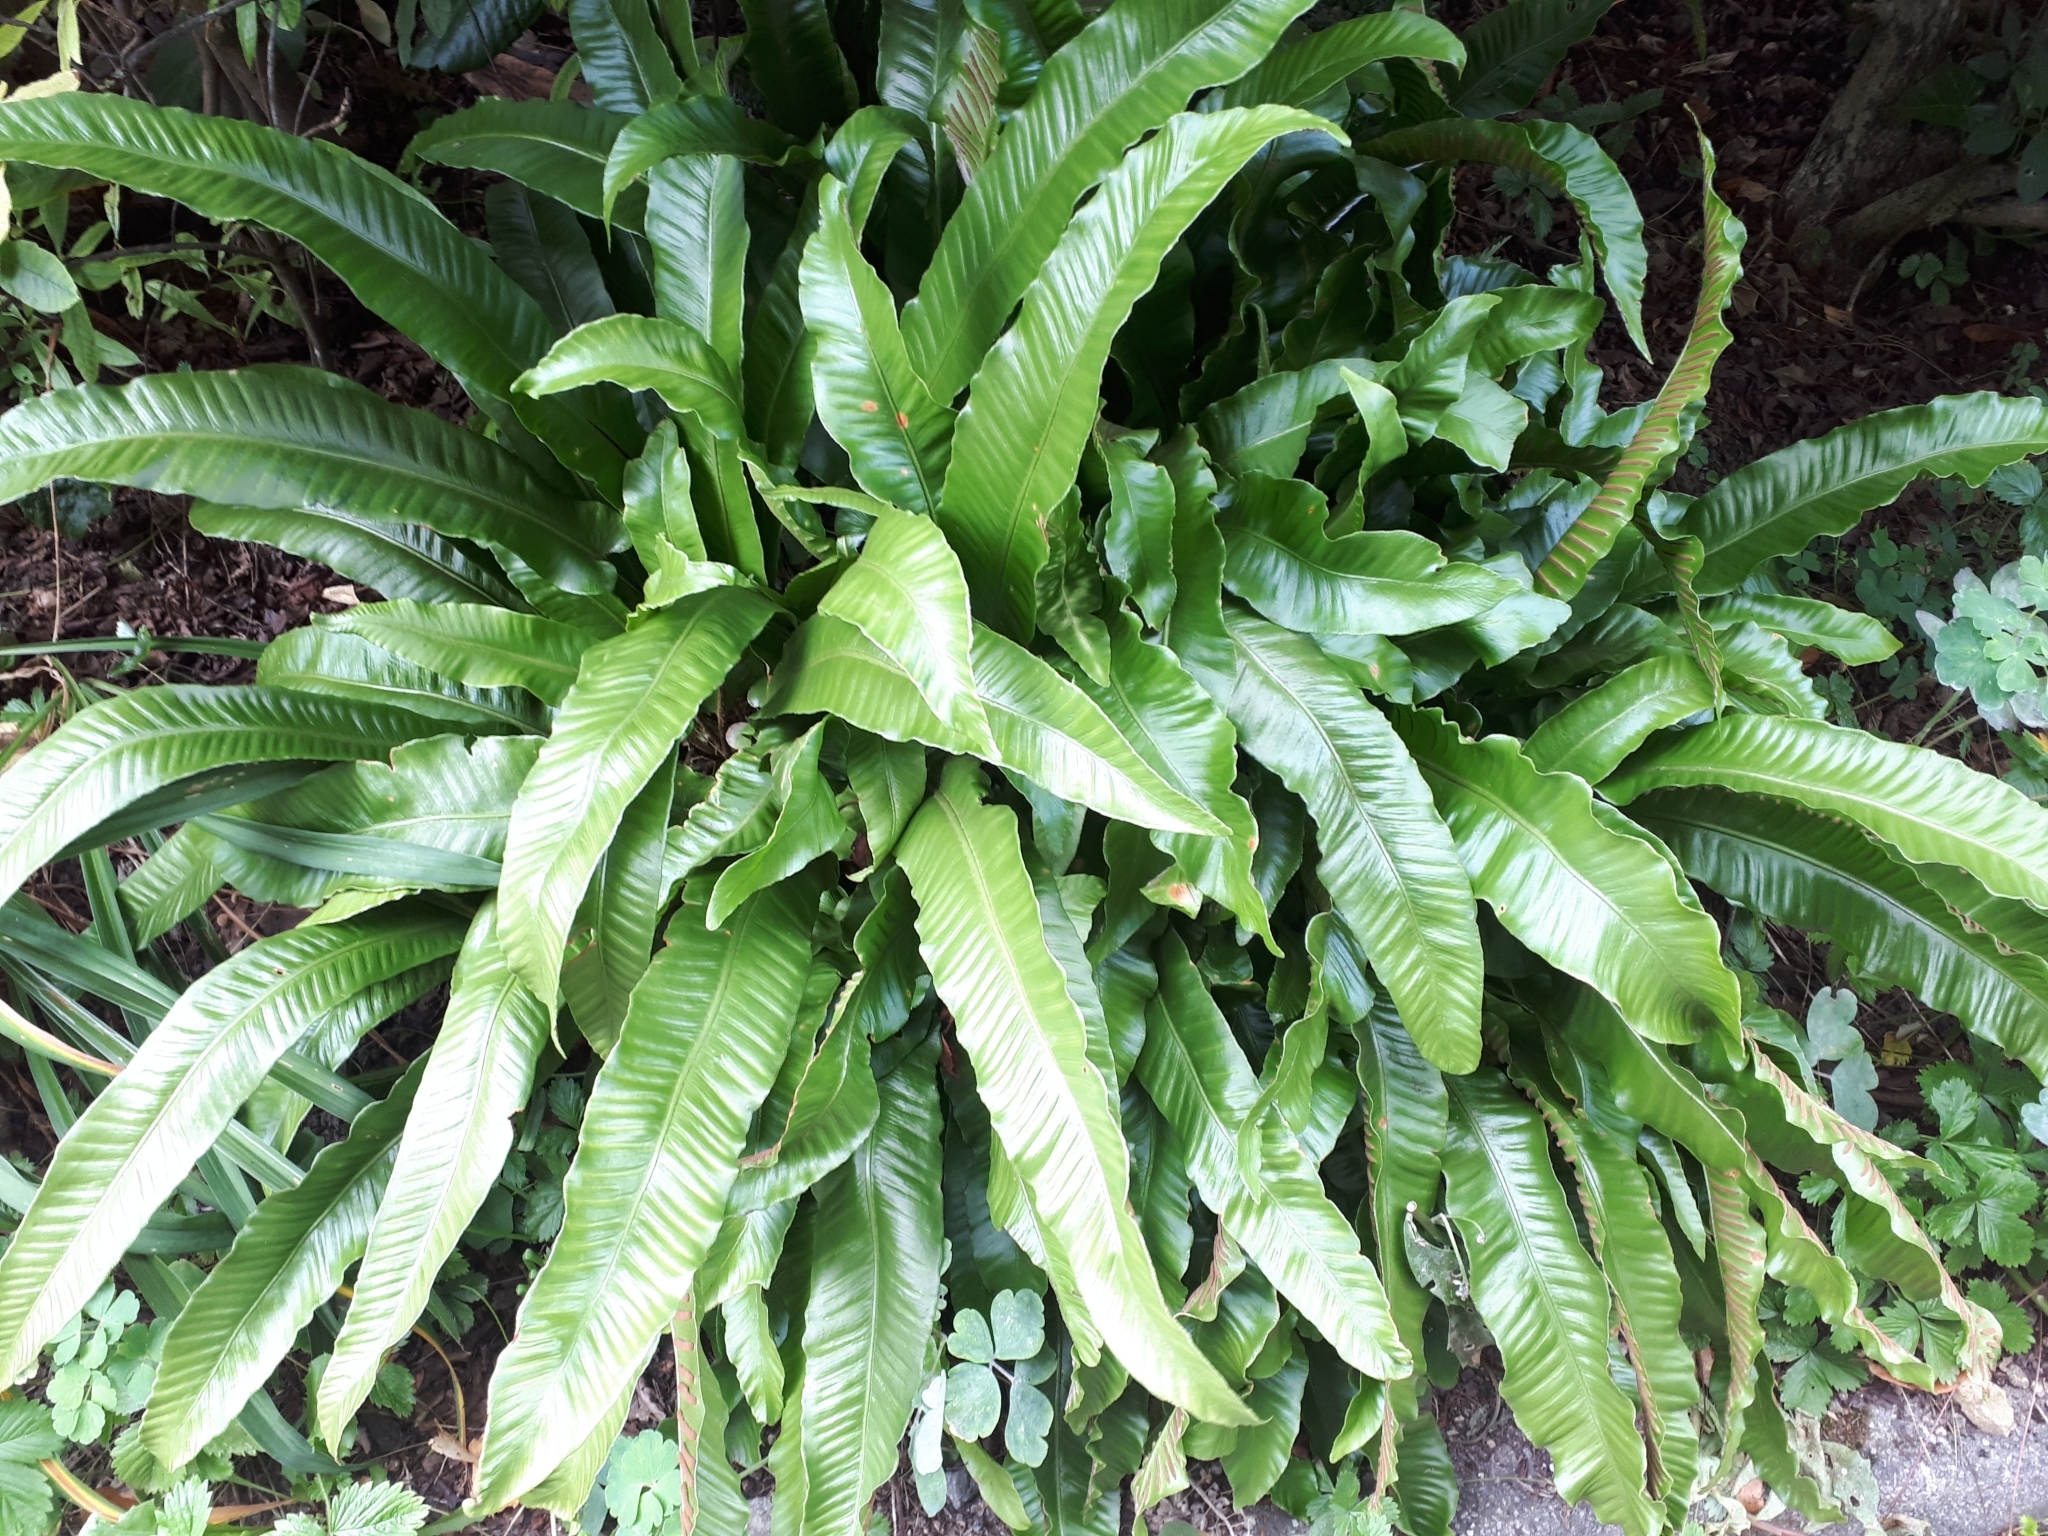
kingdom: Plantae
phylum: Tracheophyta
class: Polypodiopsida
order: Polypodiales
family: Aspleniaceae
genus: Asplenium
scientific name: Asplenium scolopendrium
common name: Hart's-tongue fern
